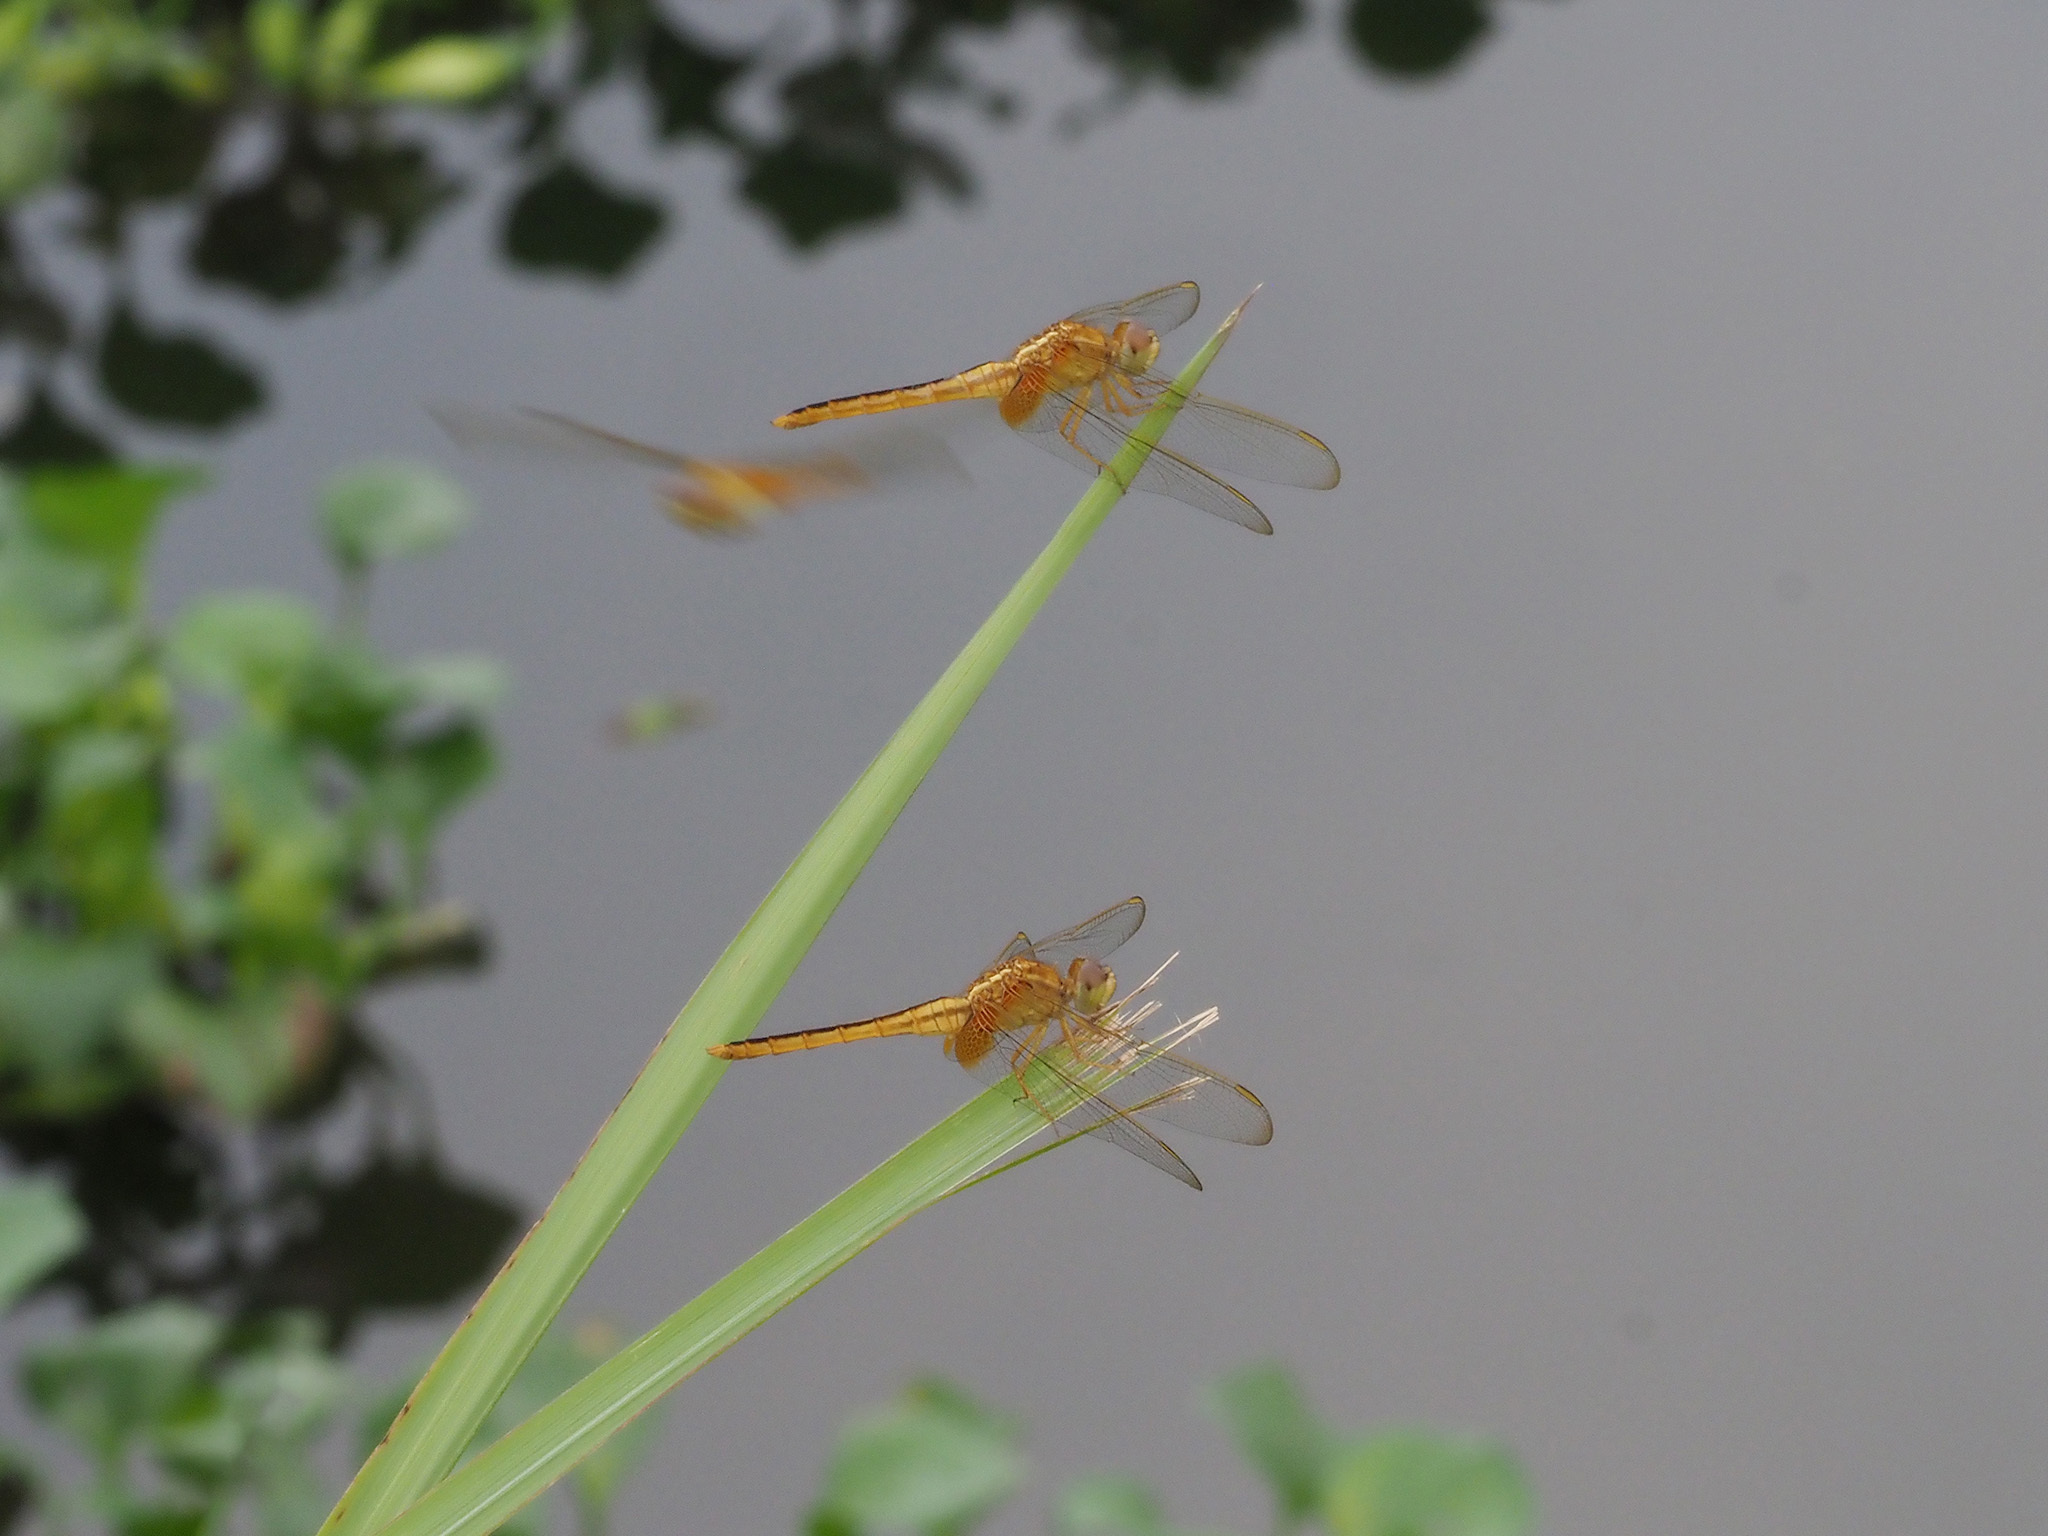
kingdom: Animalia
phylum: Arthropoda
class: Insecta
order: Odonata
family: Libellulidae
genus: Crocothemis
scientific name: Crocothemis servilia
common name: Scarlet skimmer
